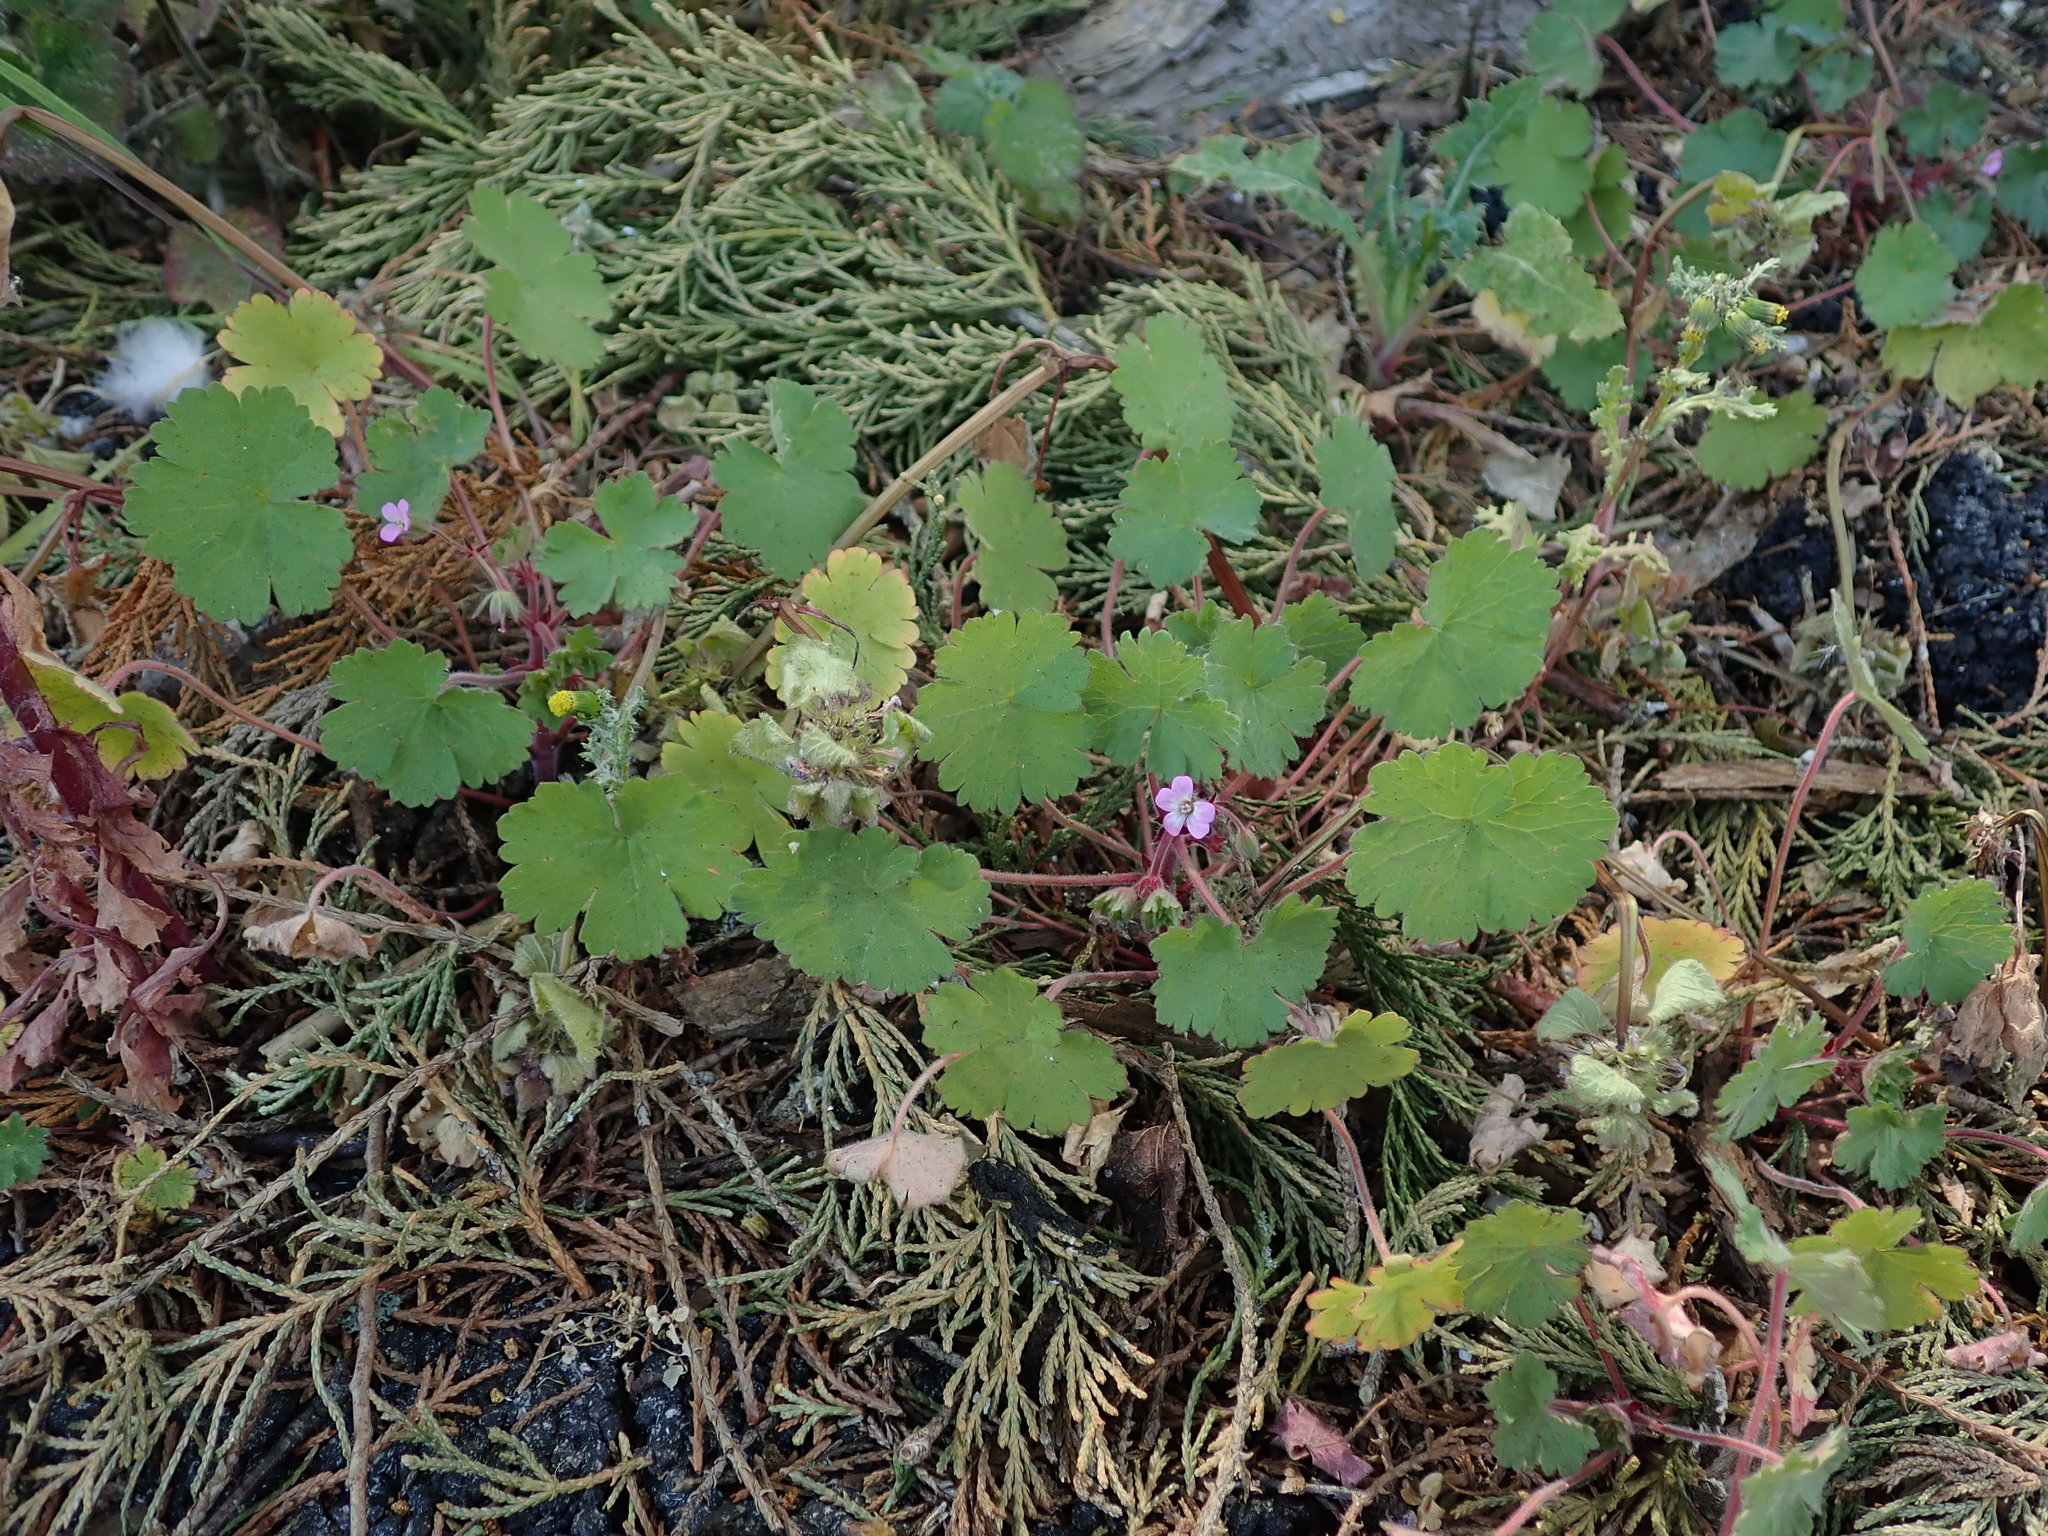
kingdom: Plantae
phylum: Tracheophyta
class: Magnoliopsida
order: Geraniales
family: Geraniaceae
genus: Geranium
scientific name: Geranium rotundifolium
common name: Round-leaved crane's-bill
